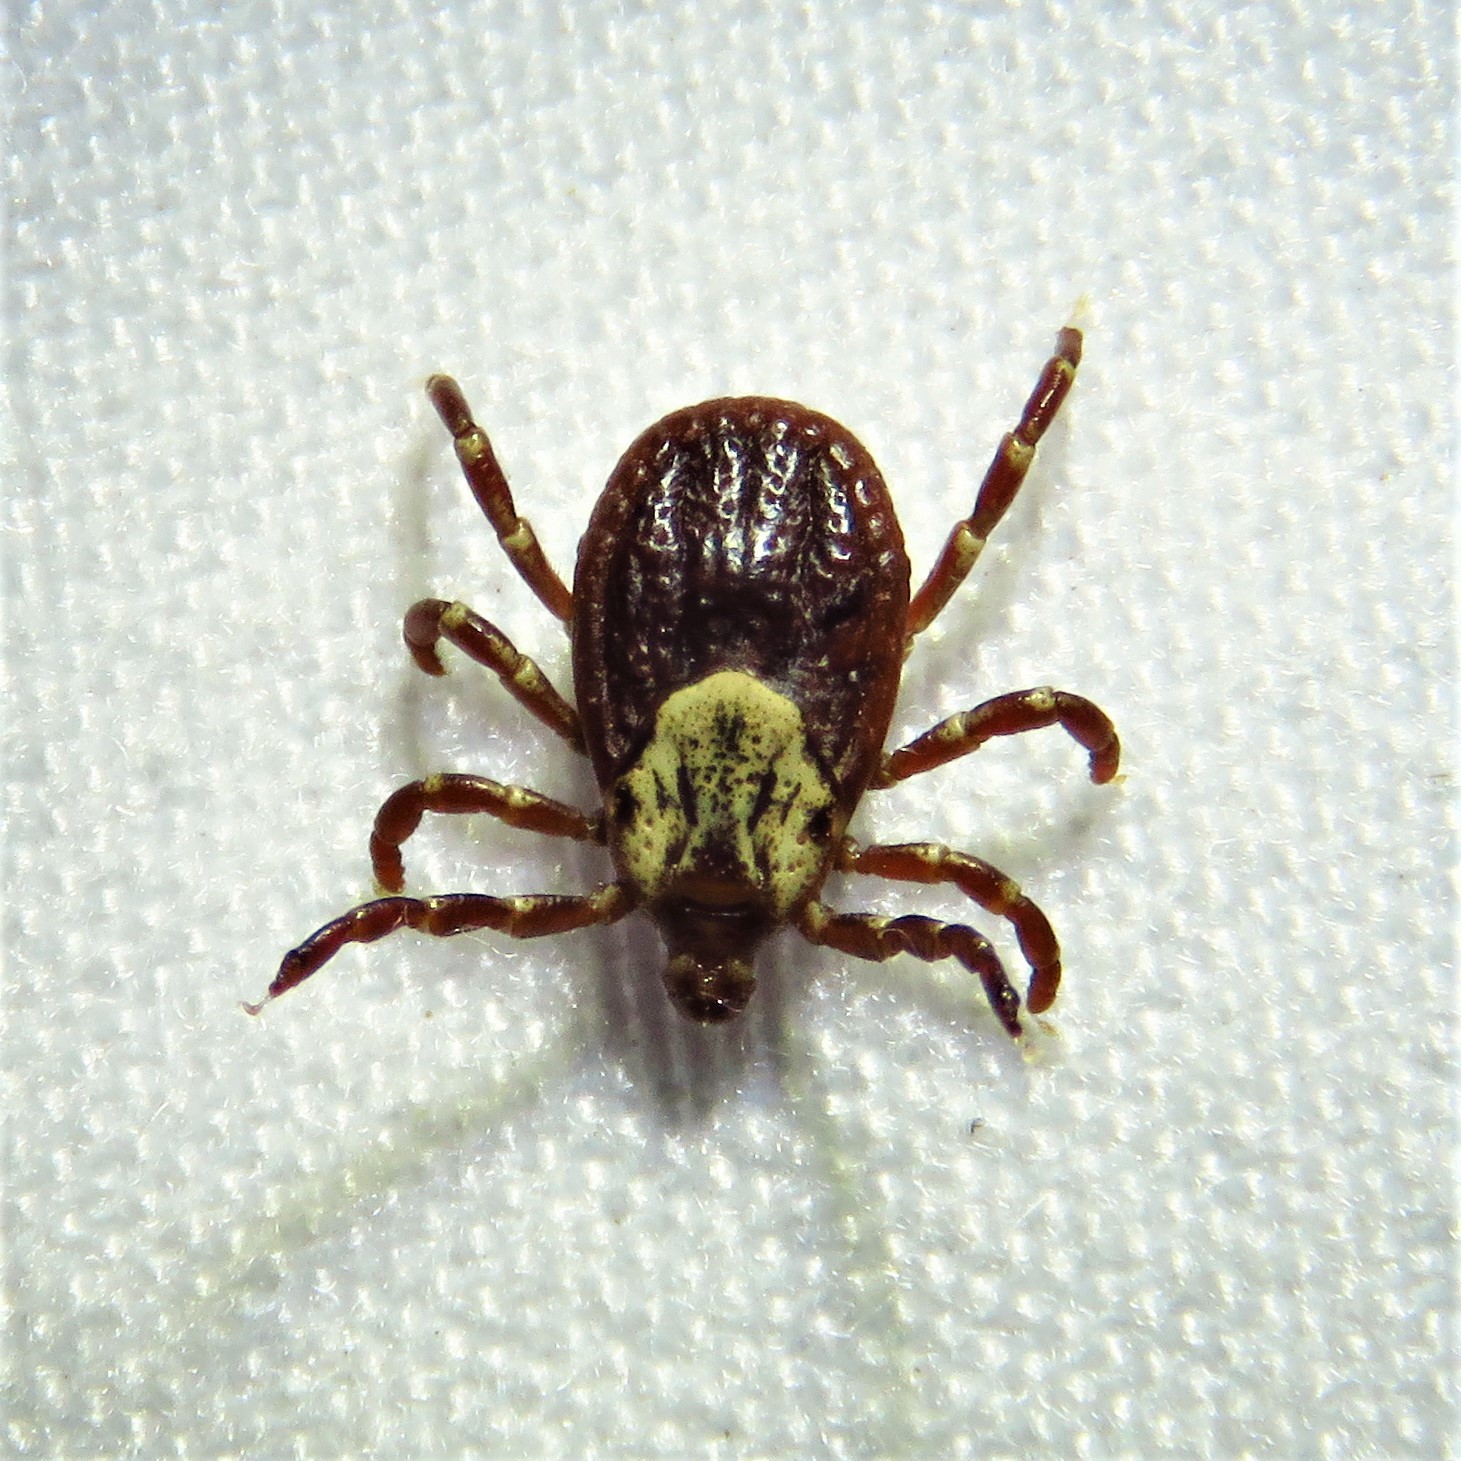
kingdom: Animalia
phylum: Arthropoda
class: Arachnida
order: Ixodida
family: Ixodidae
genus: Dermacentor
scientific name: Dermacentor variabilis
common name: American dog tick
